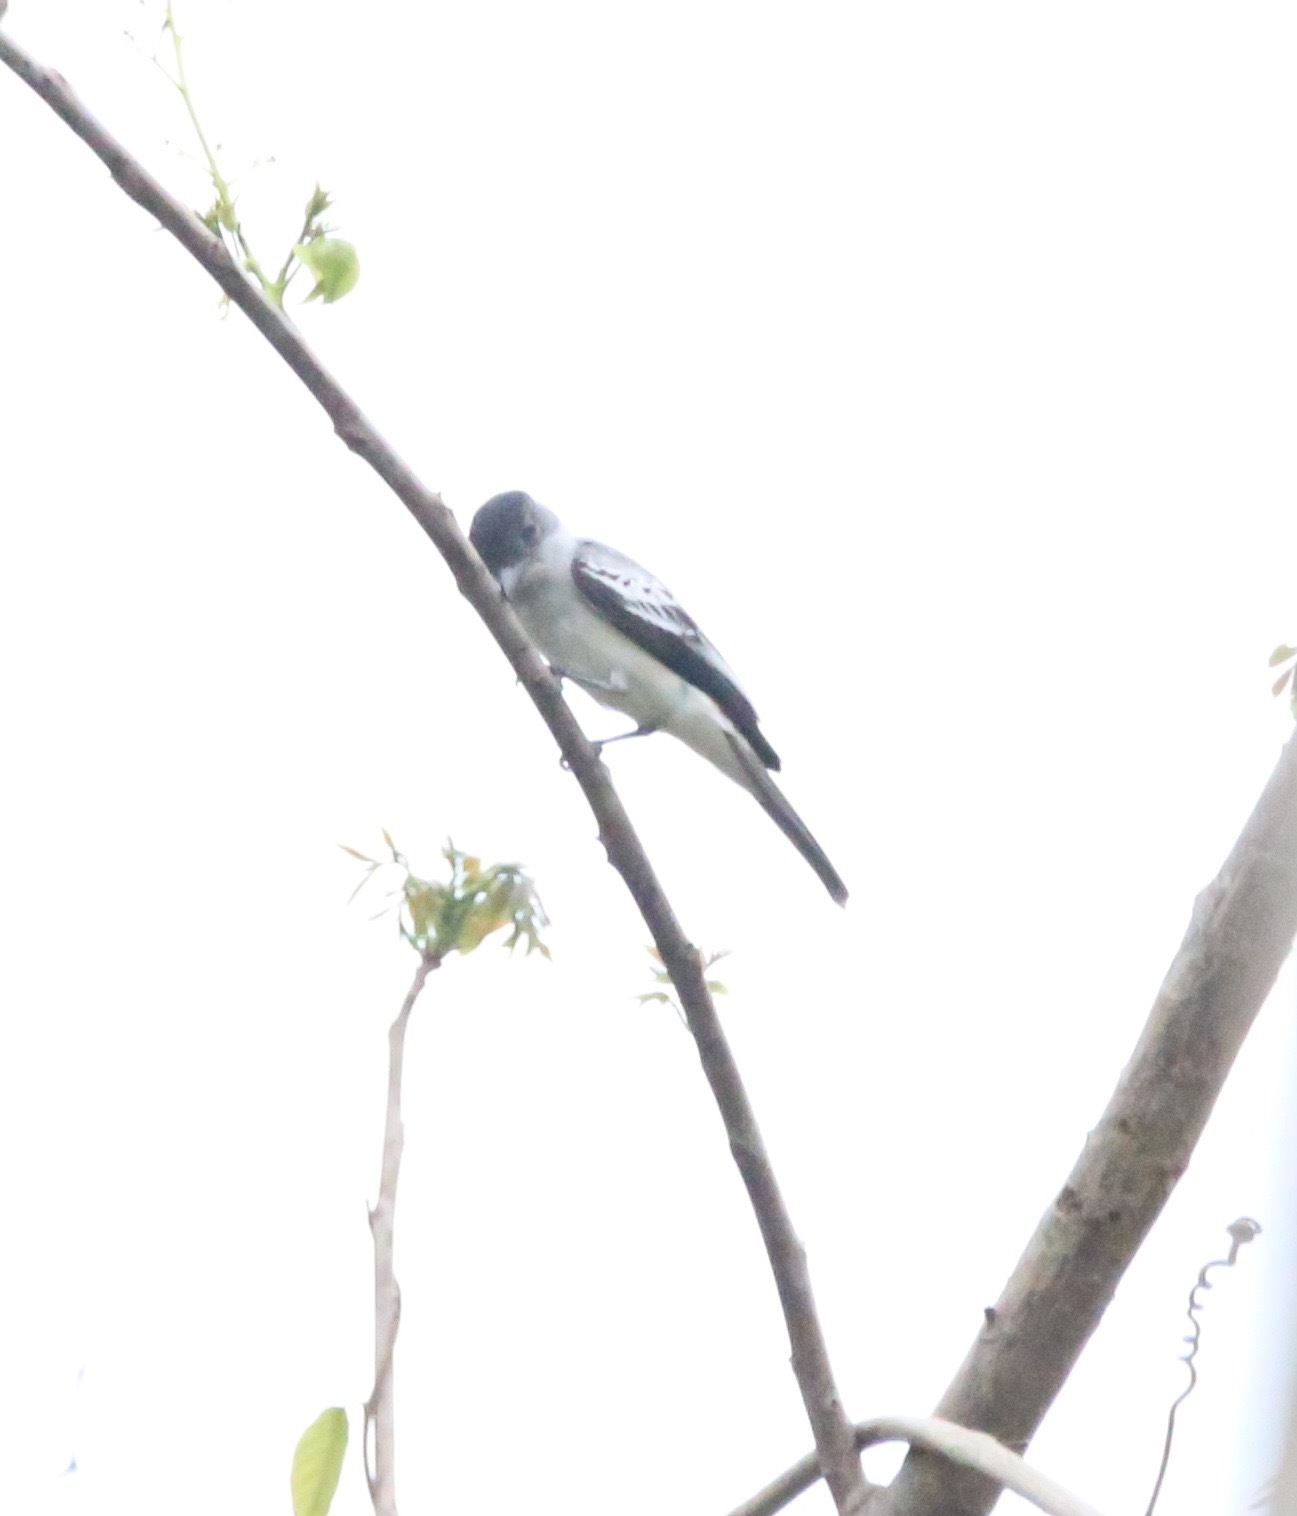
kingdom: Animalia
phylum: Chordata
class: Aves
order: Passeriformes
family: Tyrannidae
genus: Sirystes
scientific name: Sirystes sibilator
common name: Sirystes
